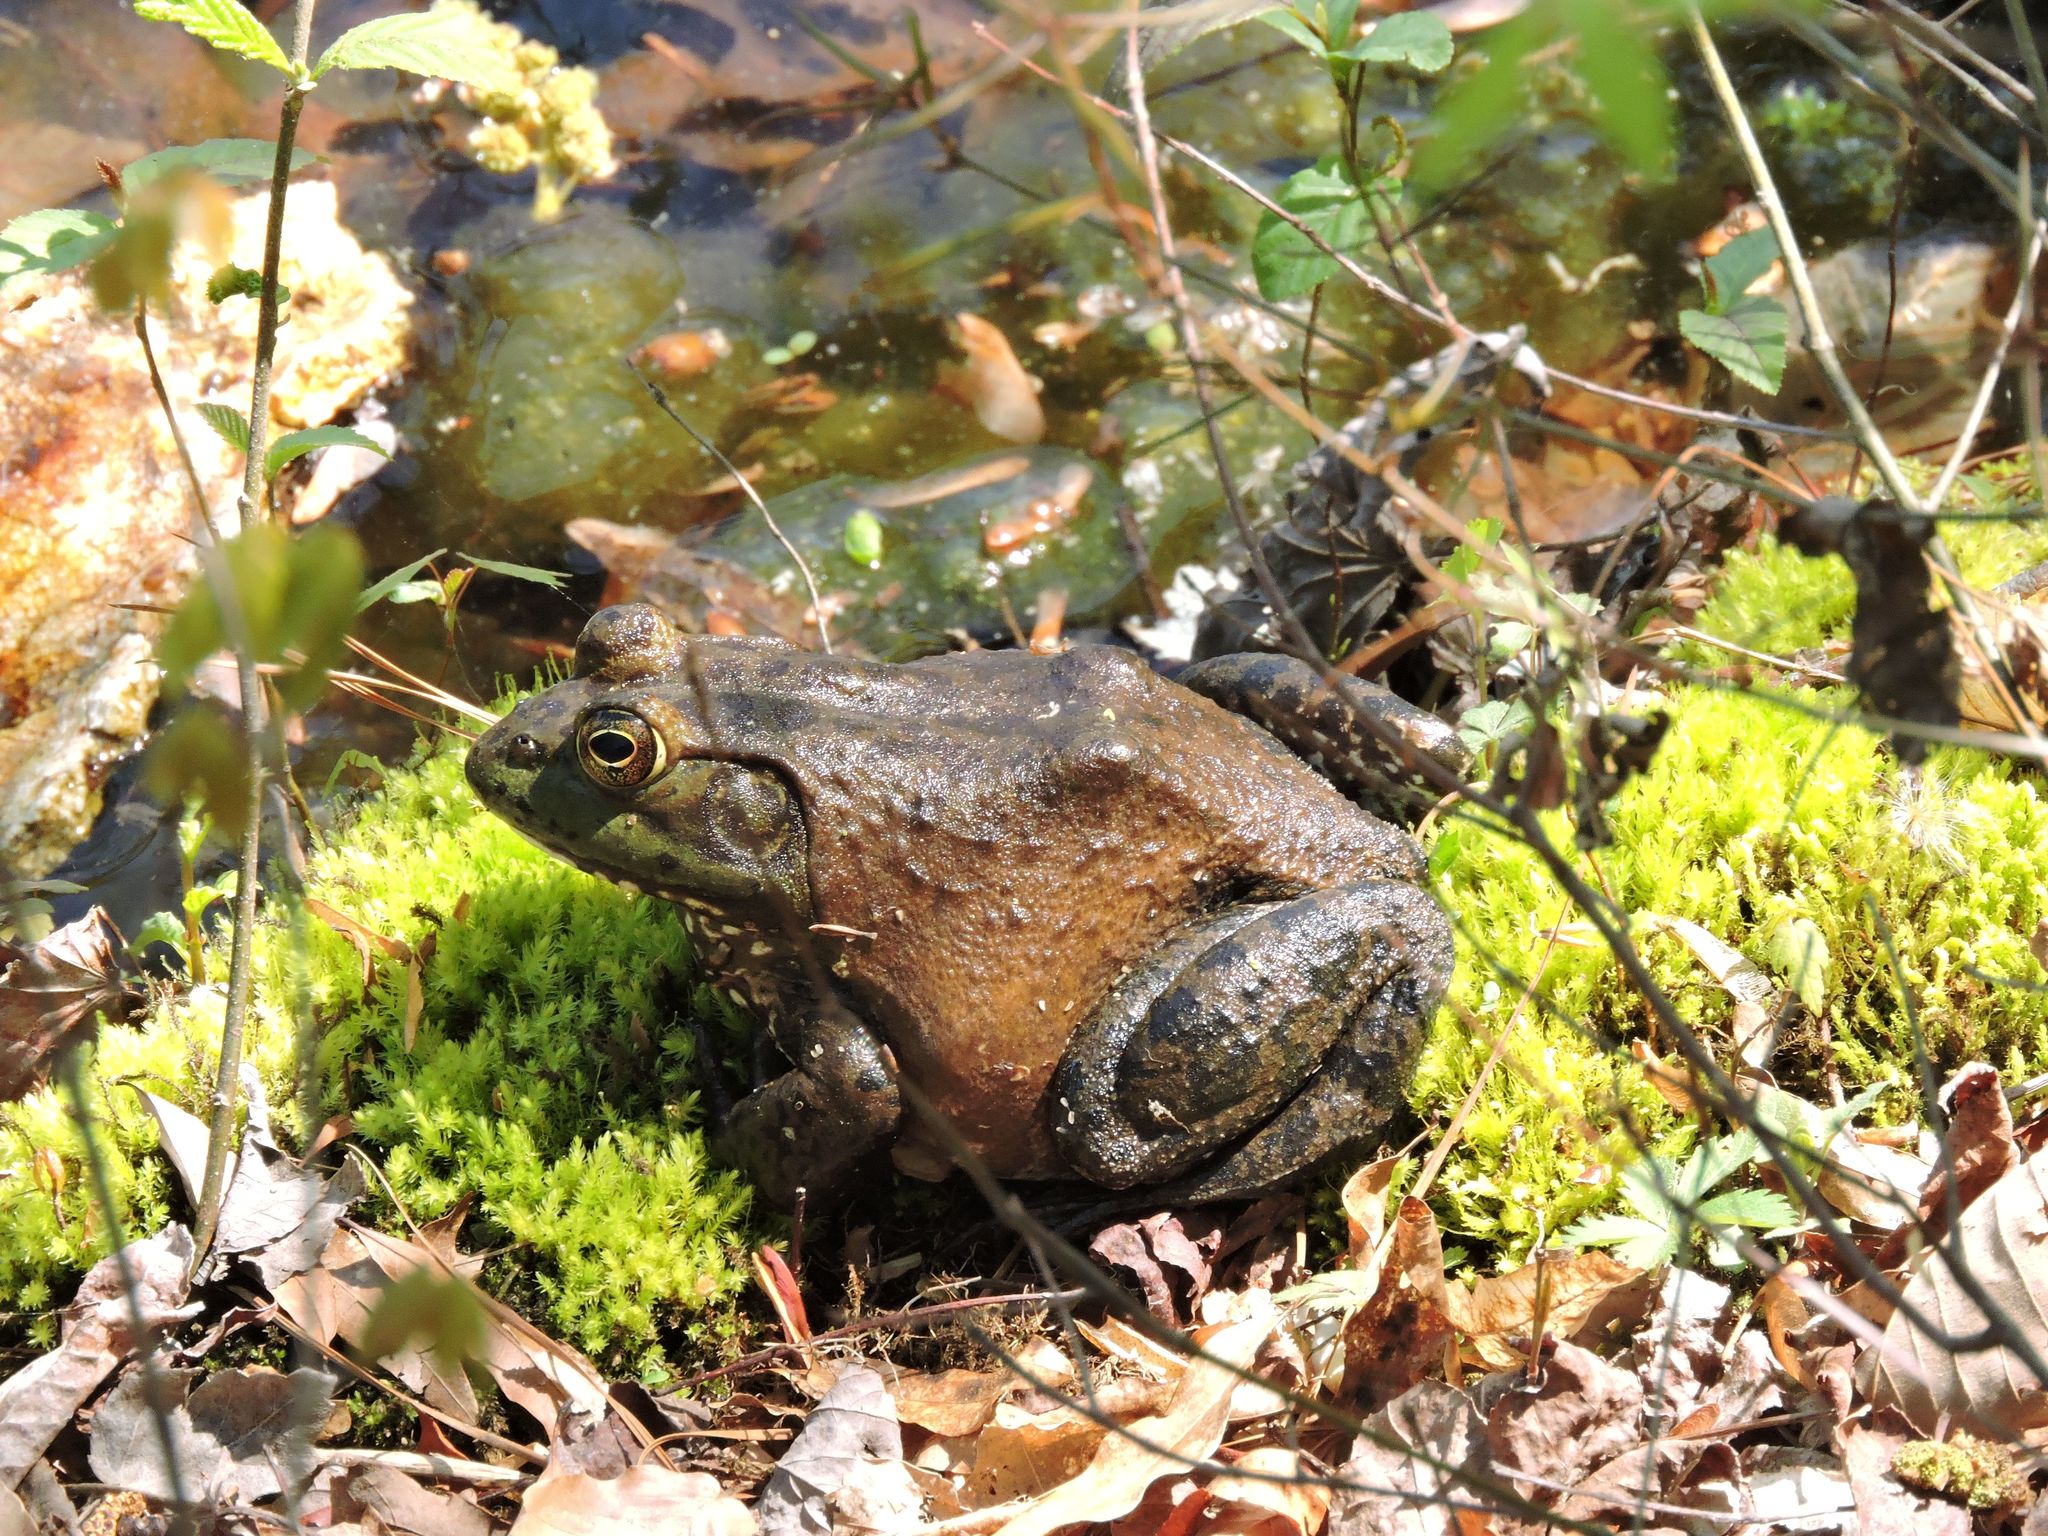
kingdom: Animalia
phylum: Chordata
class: Amphibia
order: Anura
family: Ranidae
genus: Lithobates
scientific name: Lithobates catesbeianus
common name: American bullfrog
